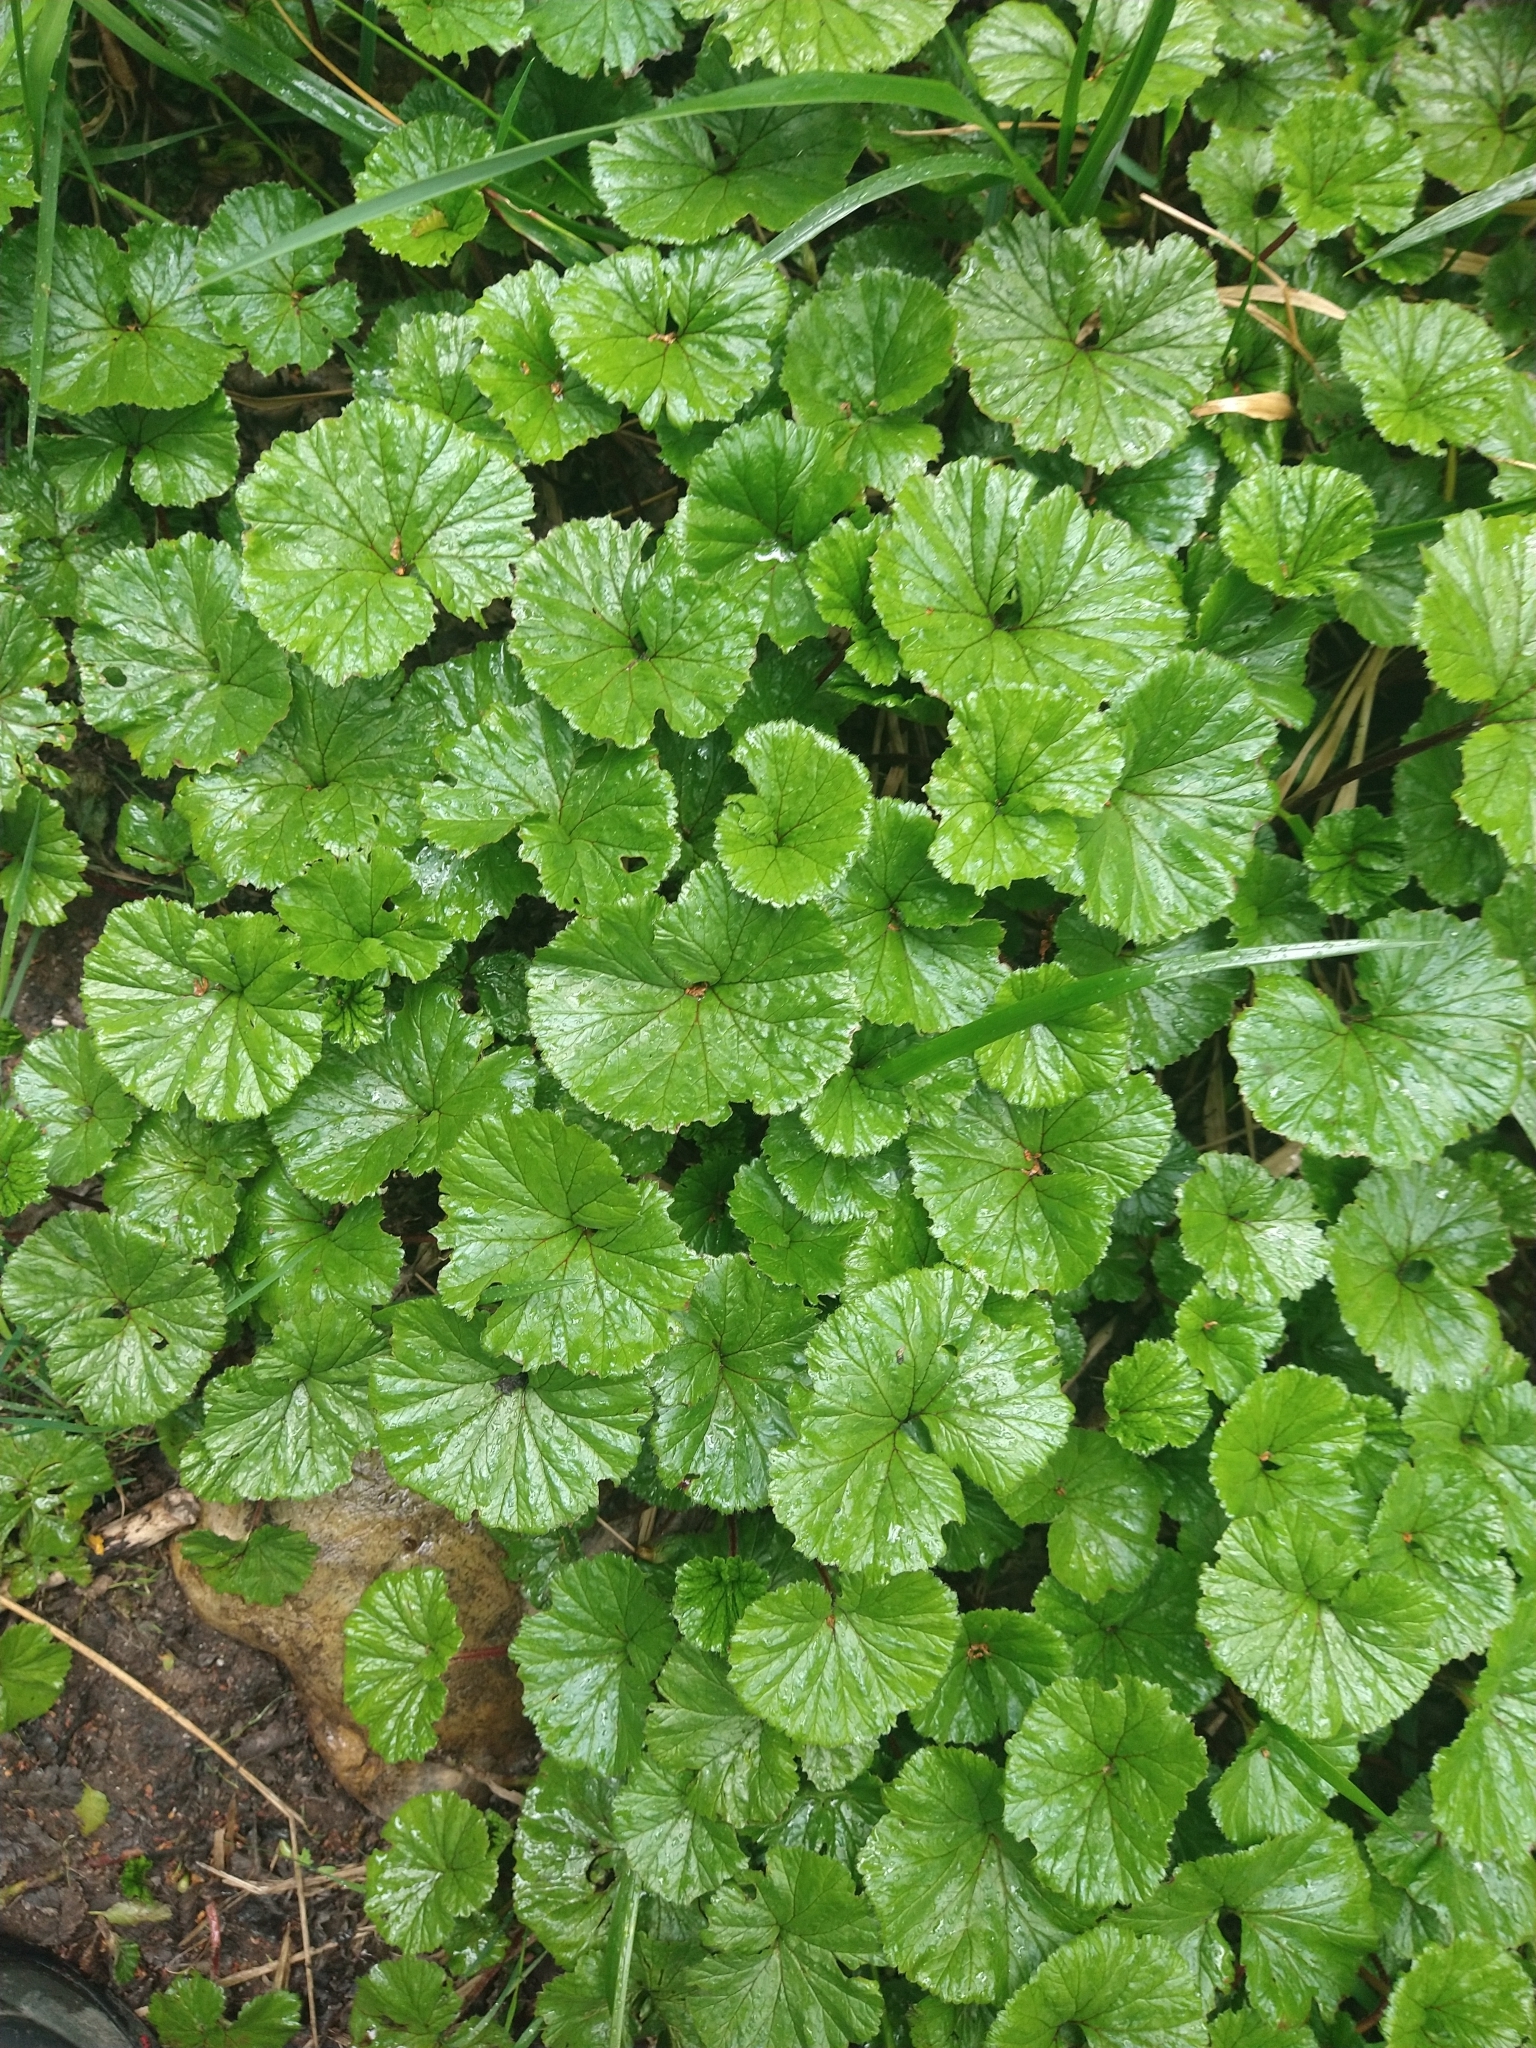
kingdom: Plantae
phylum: Tracheophyta
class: Magnoliopsida
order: Gunnerales
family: Gunneraceae
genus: Gunnera
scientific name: Gunnera magellanica
